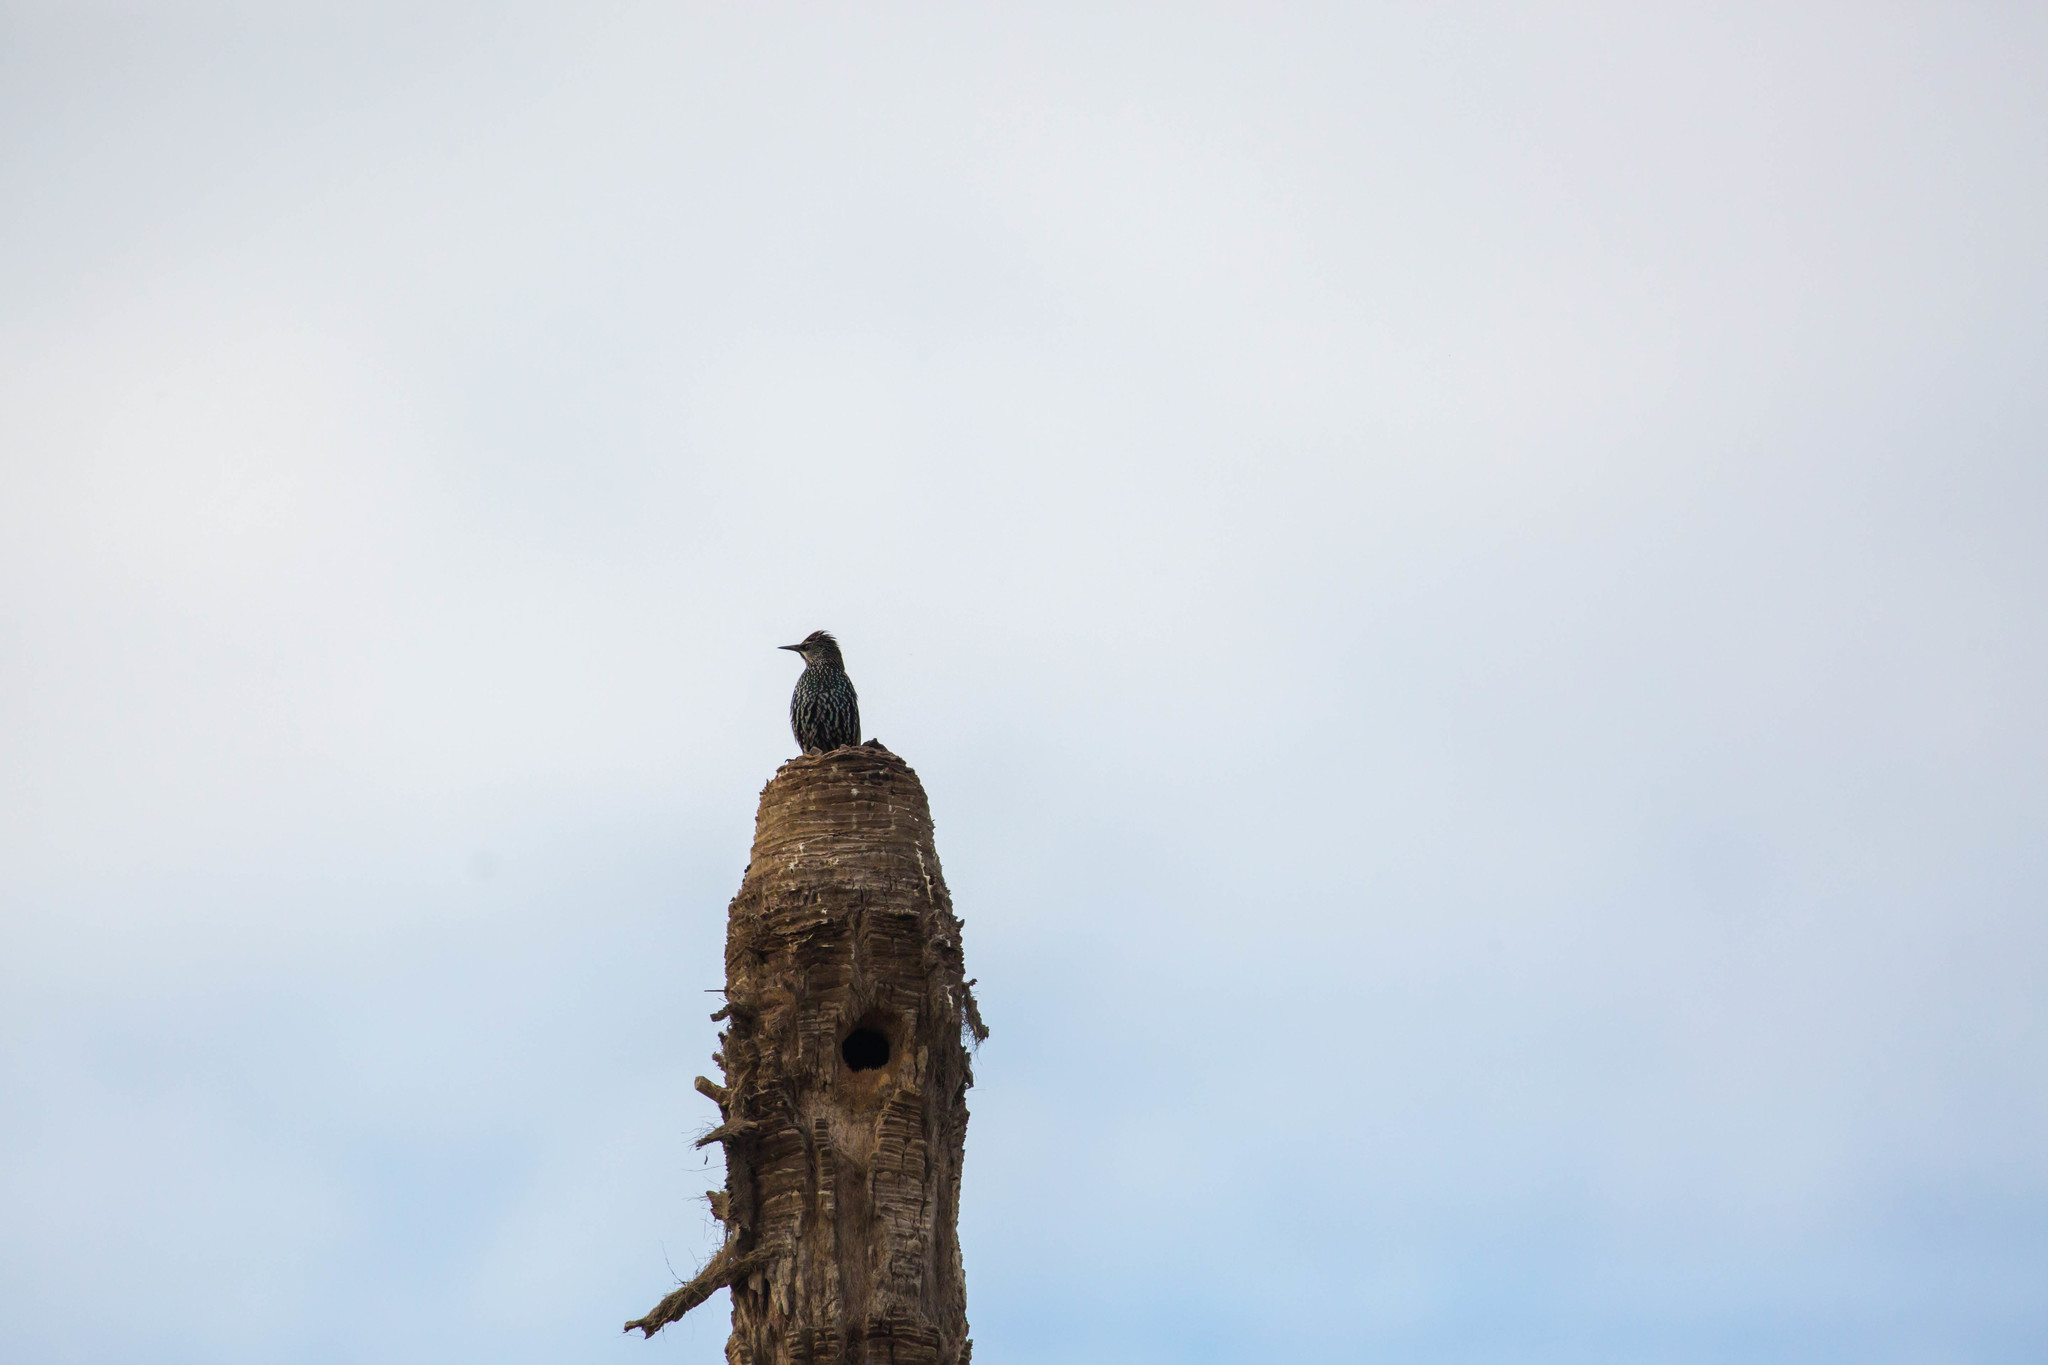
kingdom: Animalia
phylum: Chordata
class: Aves
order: Passeriformes
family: Sturnidae
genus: Sturnus
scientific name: Sturnus vulgaris
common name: Common starling
